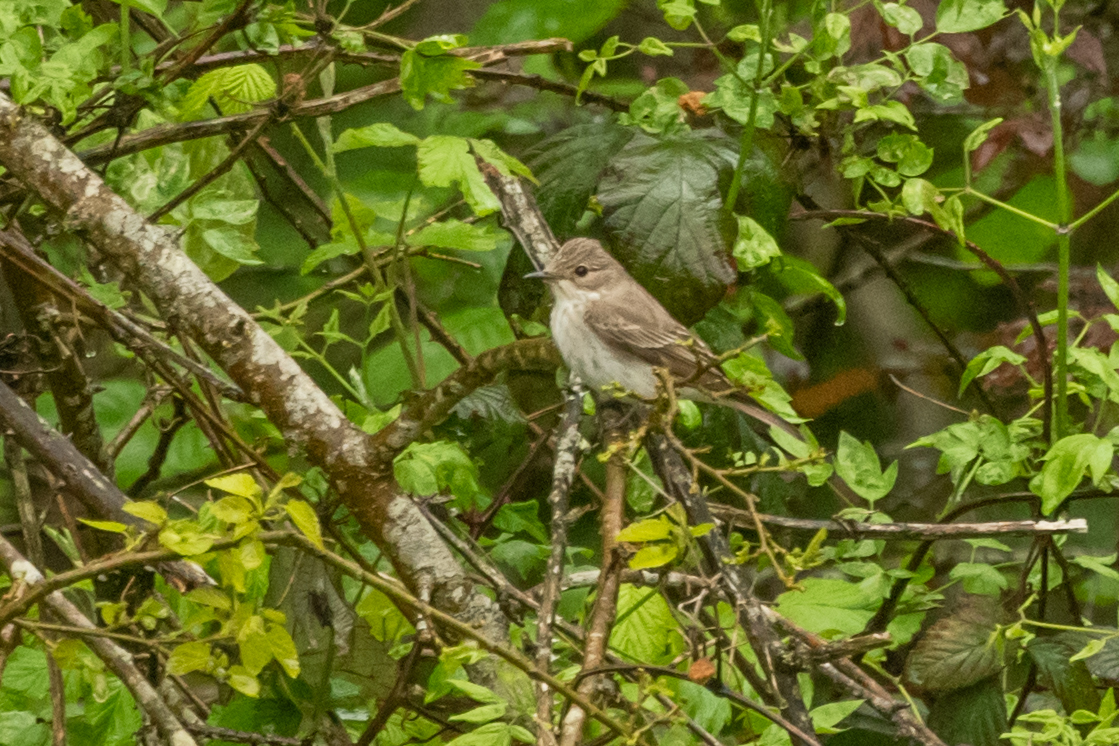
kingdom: Animalia
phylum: Chordata
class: Aves
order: Passeriformes
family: Muscicapidae
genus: Muscicapa
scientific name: Muscicapa striata
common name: Spotted flycatcher
